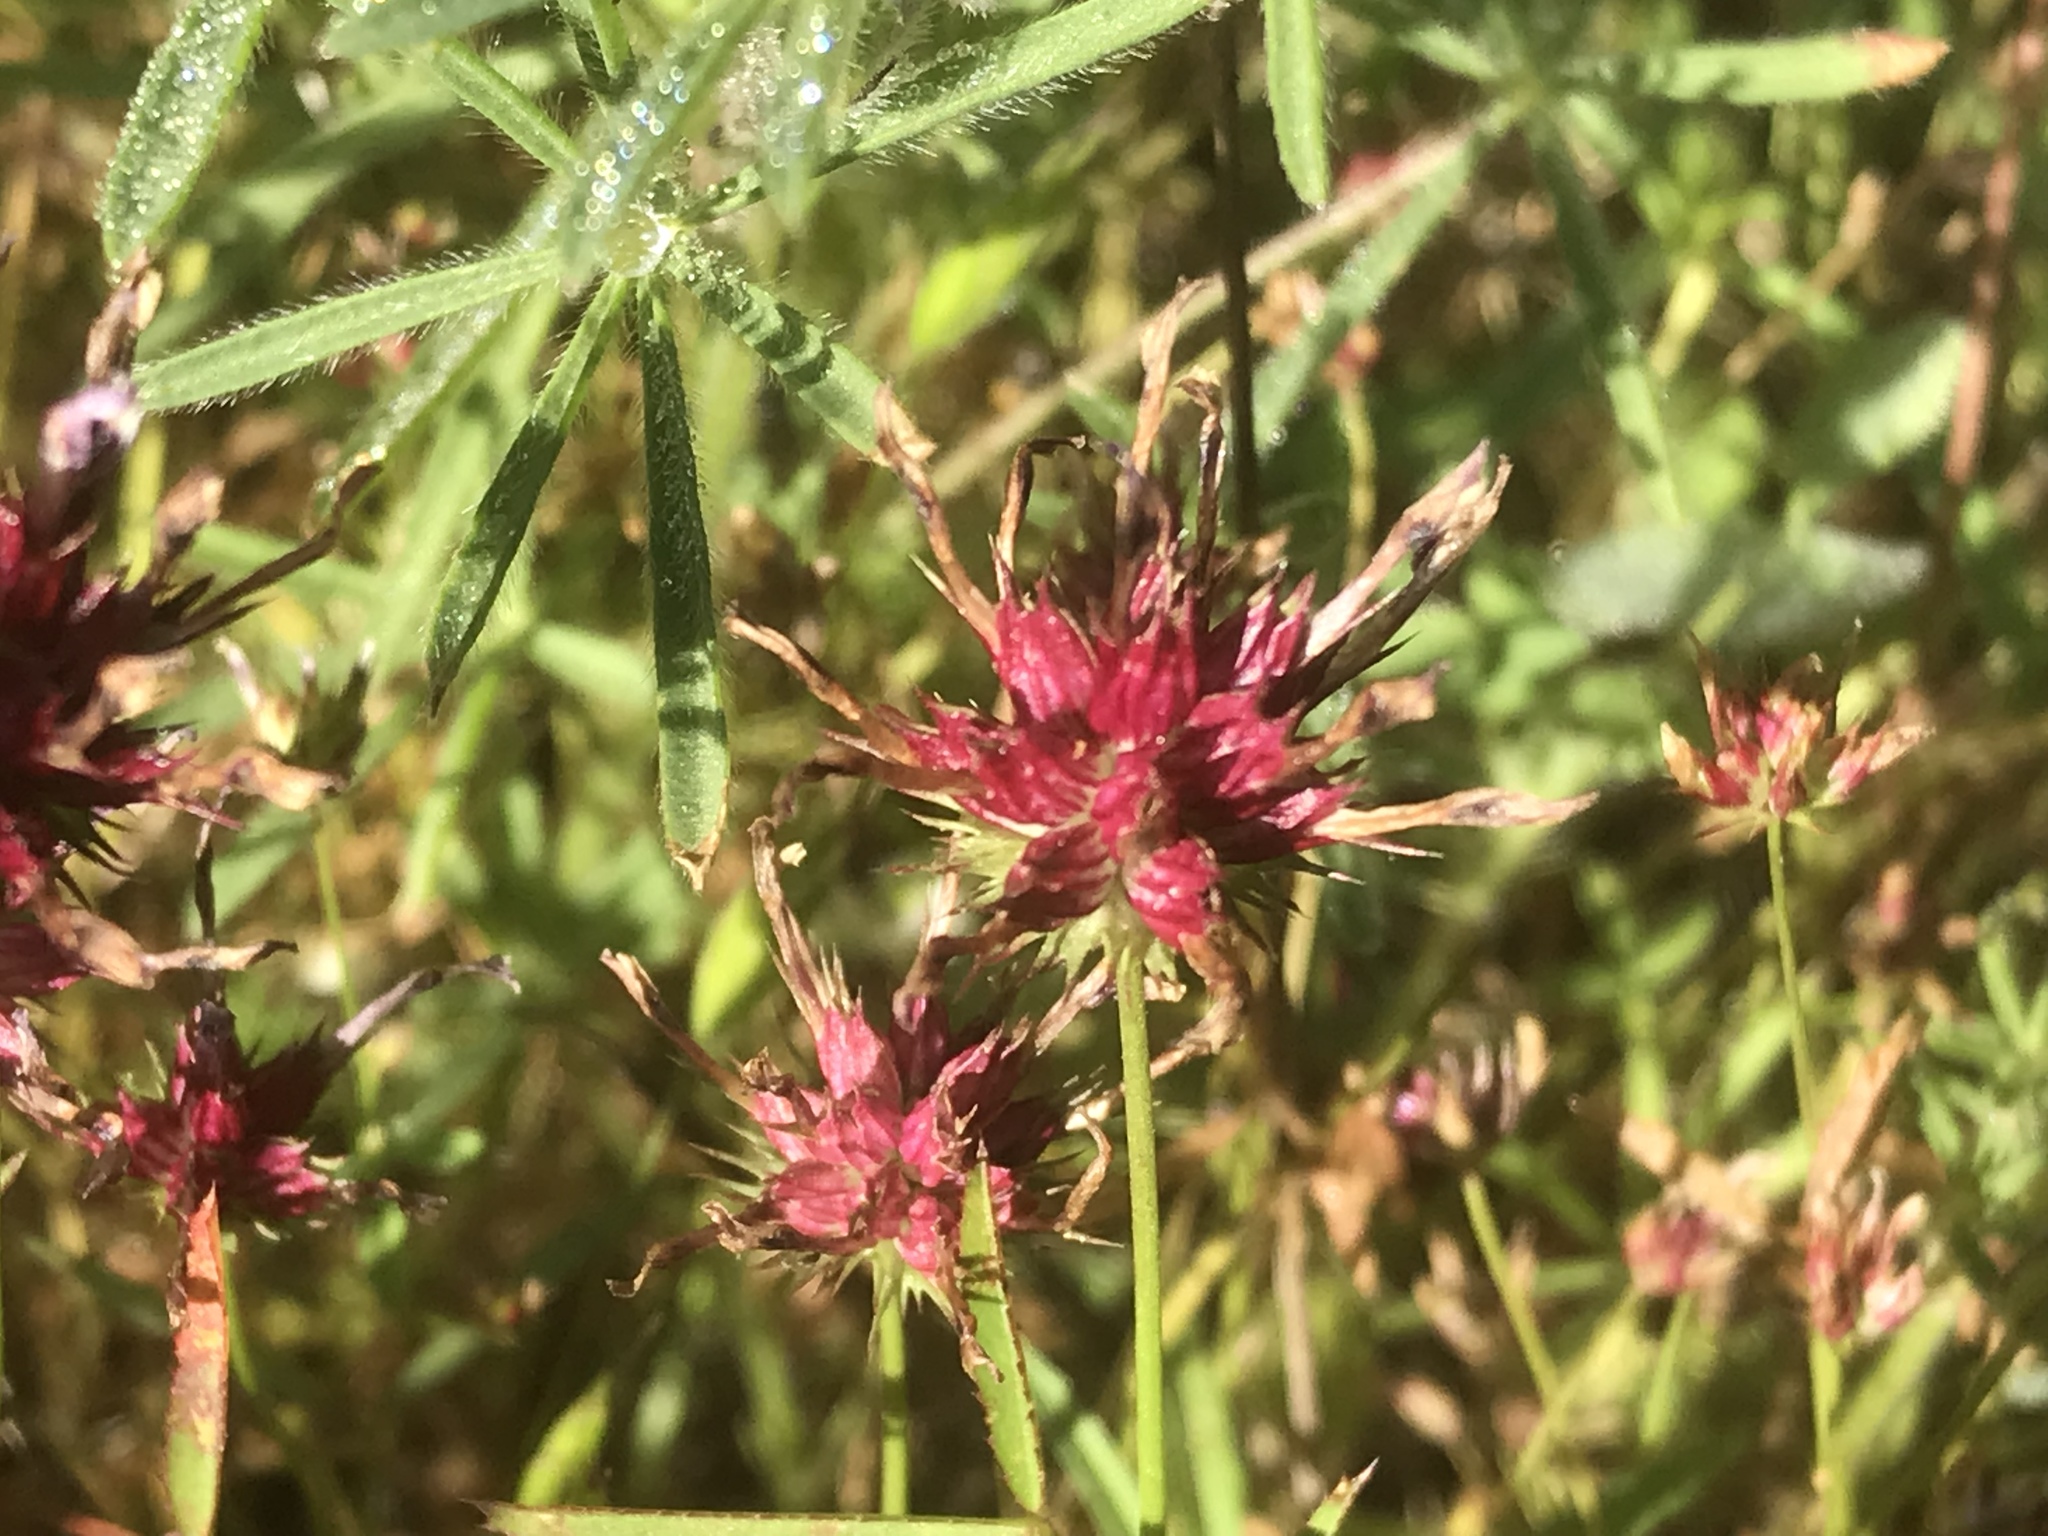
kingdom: Plantae
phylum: Tracheophyta
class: Magnoliopsida
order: Fabales
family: Fabaceae
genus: Trifolium
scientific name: Trifolium willdenovii
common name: Tomcat clover
